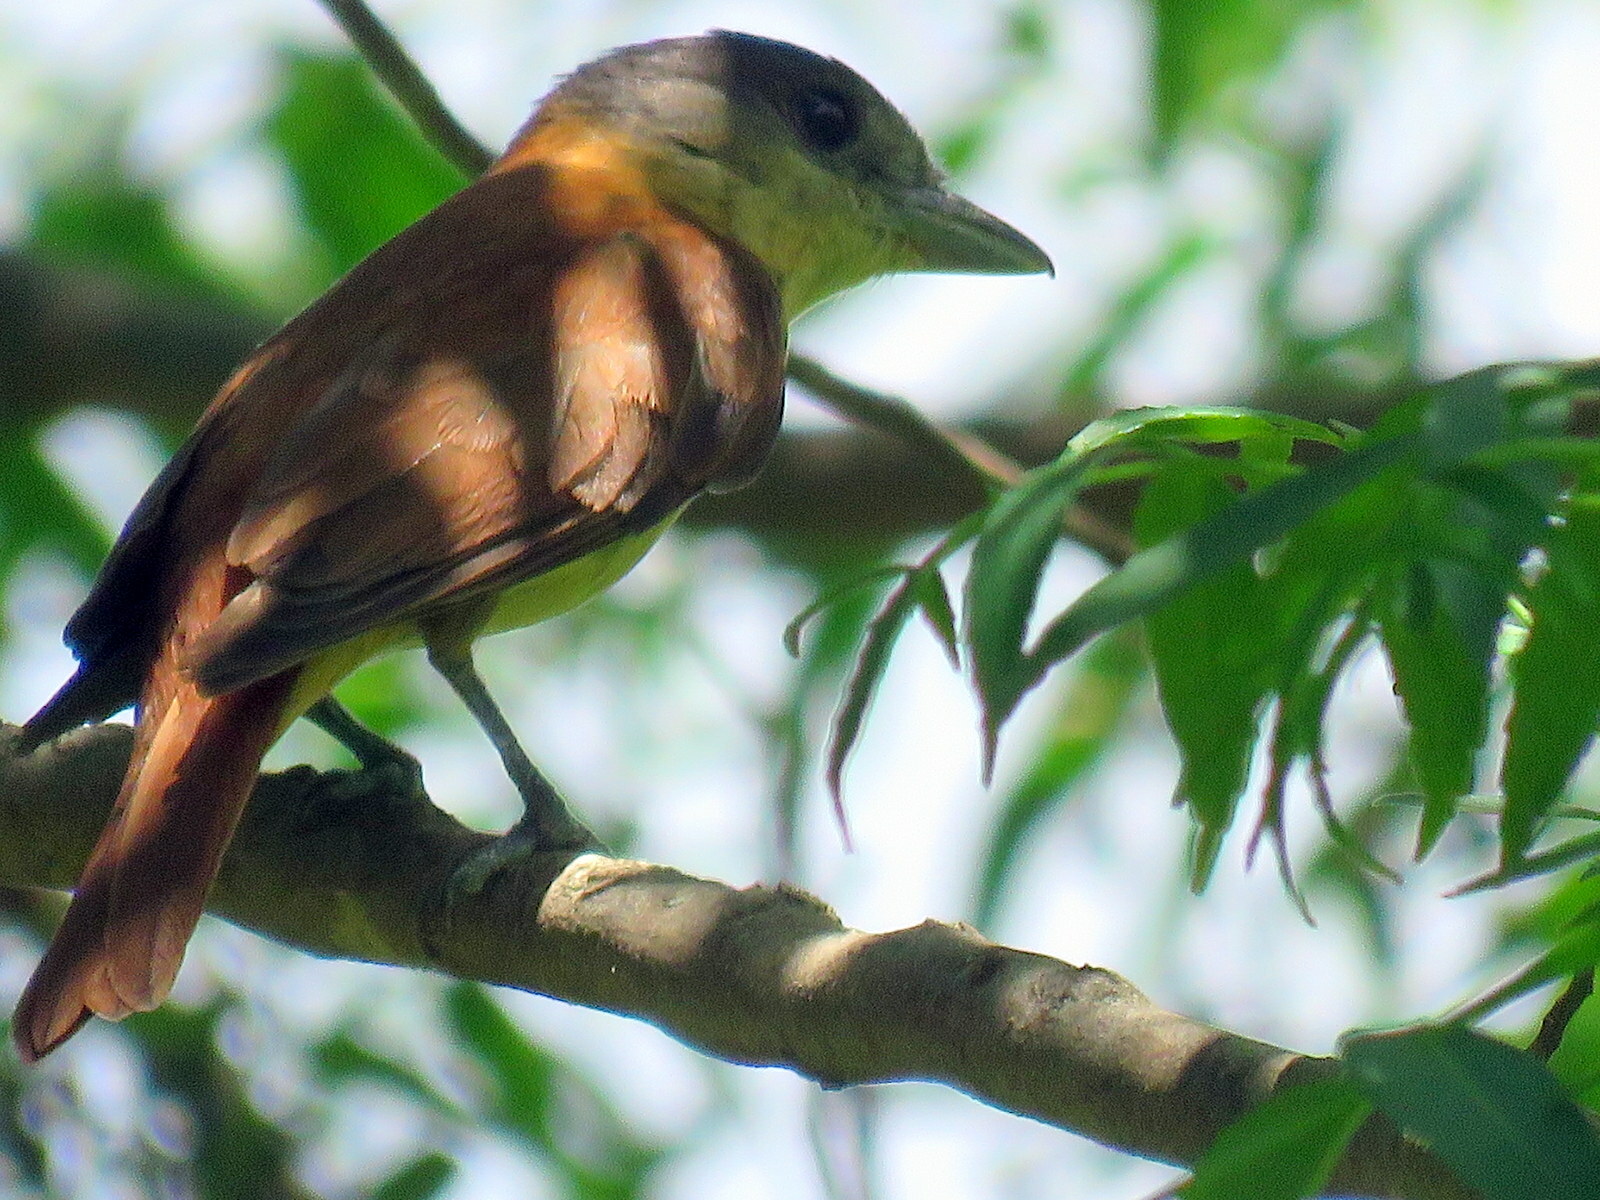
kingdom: Animalia
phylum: Chordata
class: Aves
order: Passeriformes
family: Cotingidae
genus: Pachyramphus
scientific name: Pachyramphus validus
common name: Crested becard
